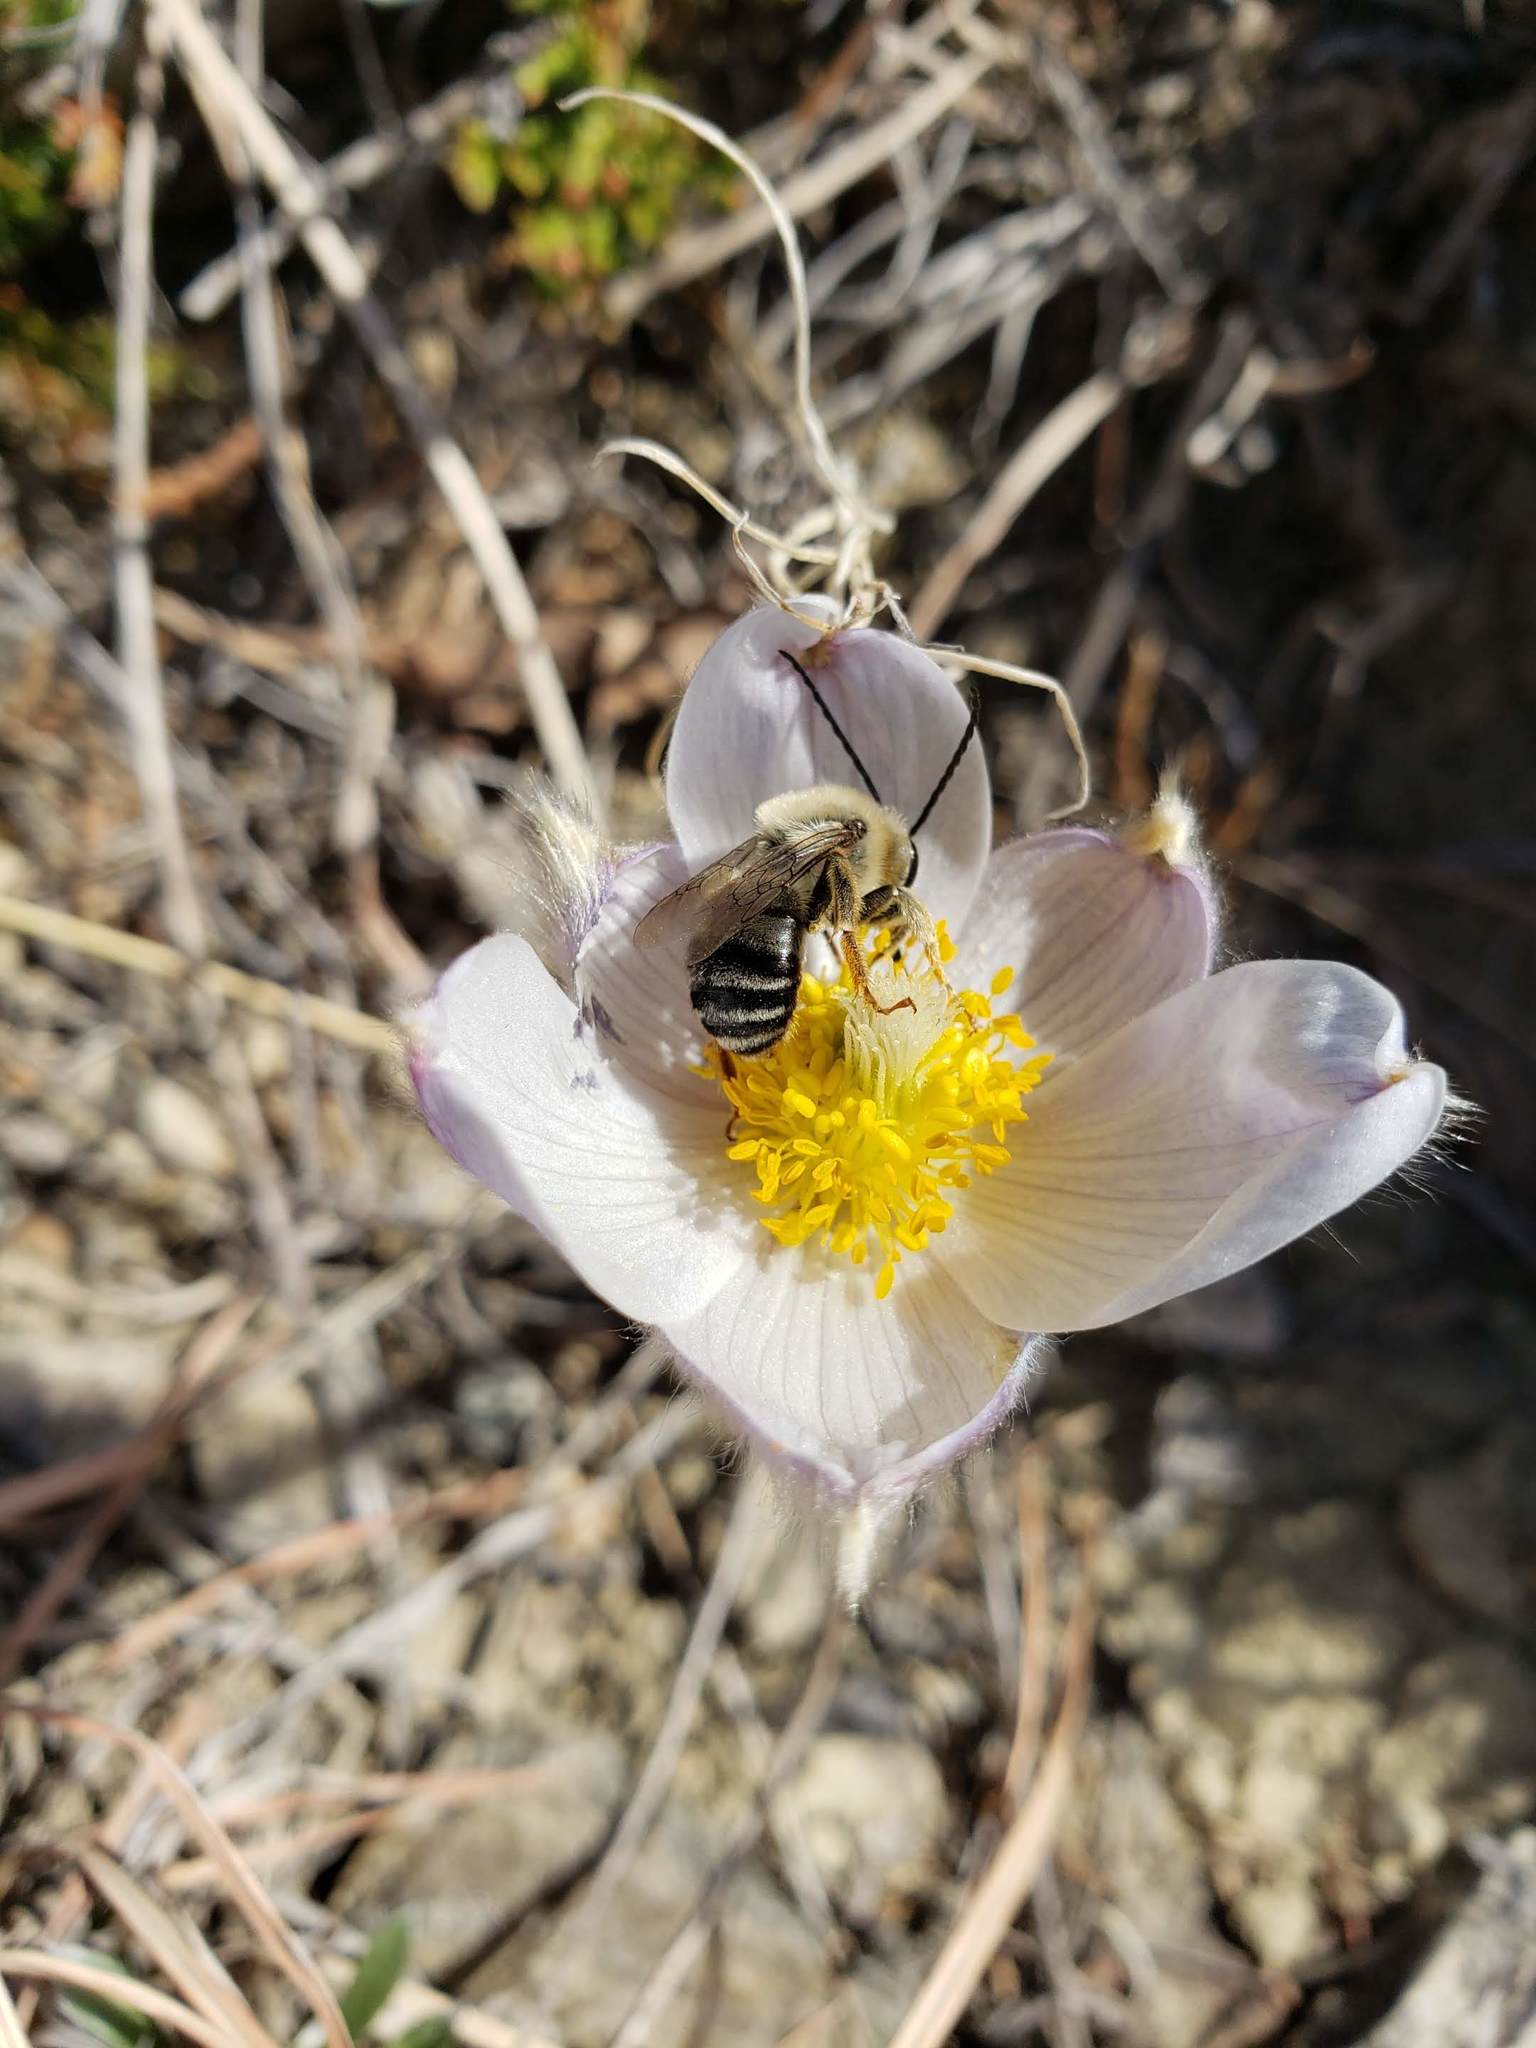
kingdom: Plantae
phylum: Tracheophyta
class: Magnoliopsida
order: Ranunculales
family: Ranunculaceae
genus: Pulsatilla
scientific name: Pulsatilla nuttalliana
